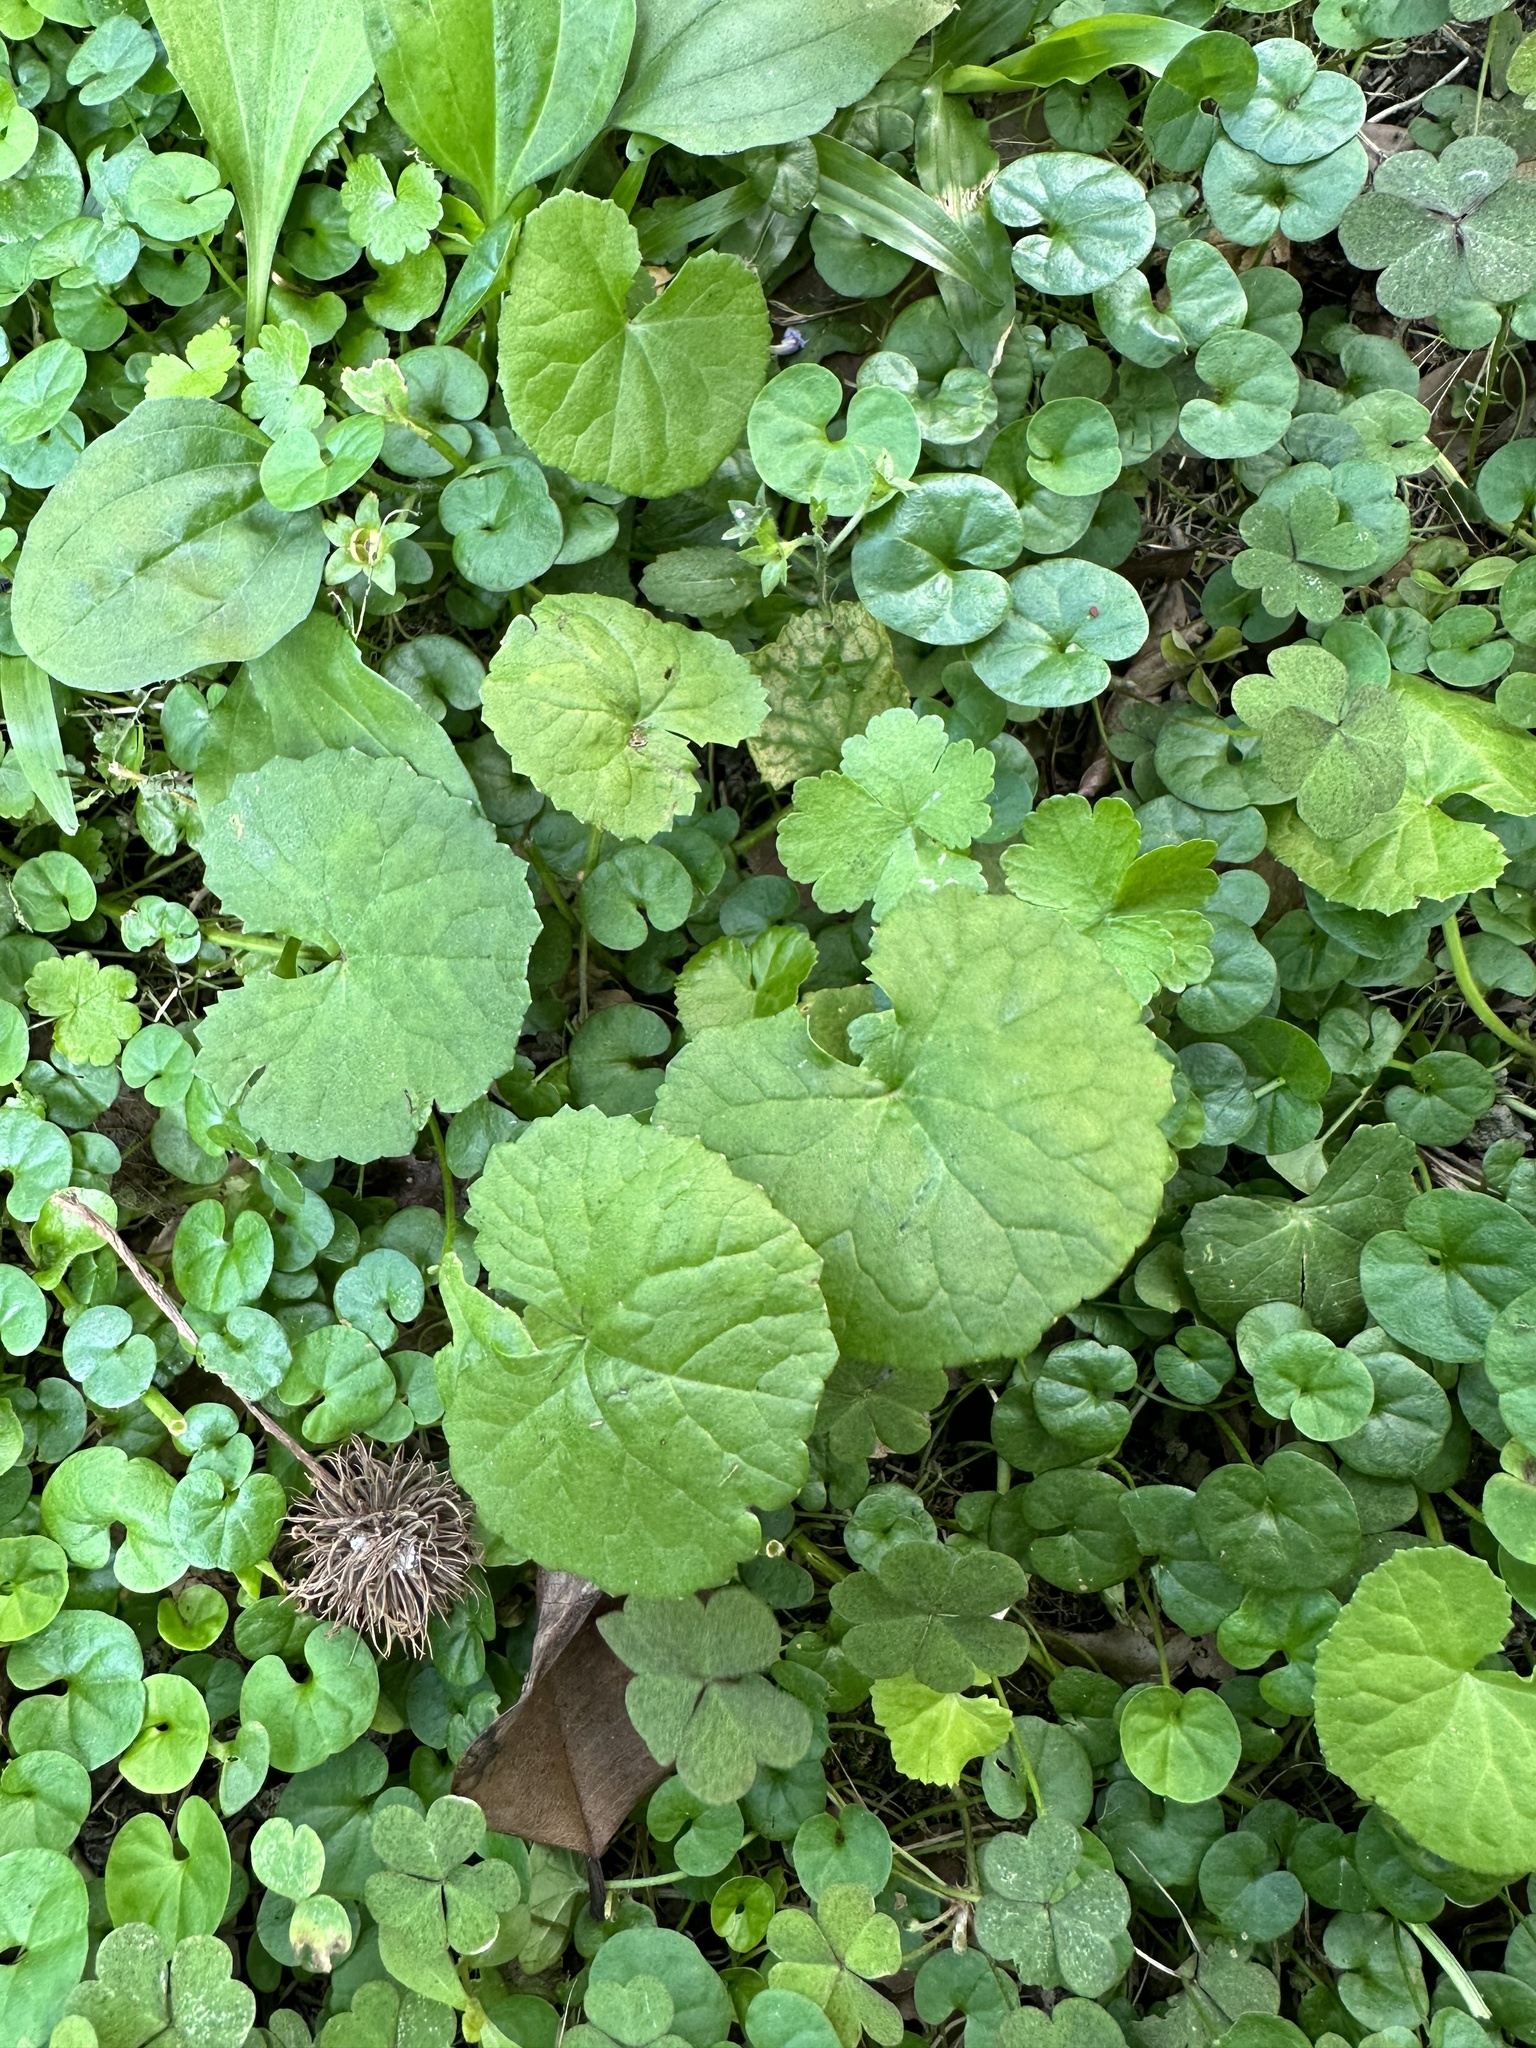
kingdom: Plantae
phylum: Tracheophyta
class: Magnoliopsida
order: Apiales
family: Apiaceae
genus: Centella
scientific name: Centella asiatica
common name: Spadeleaf
